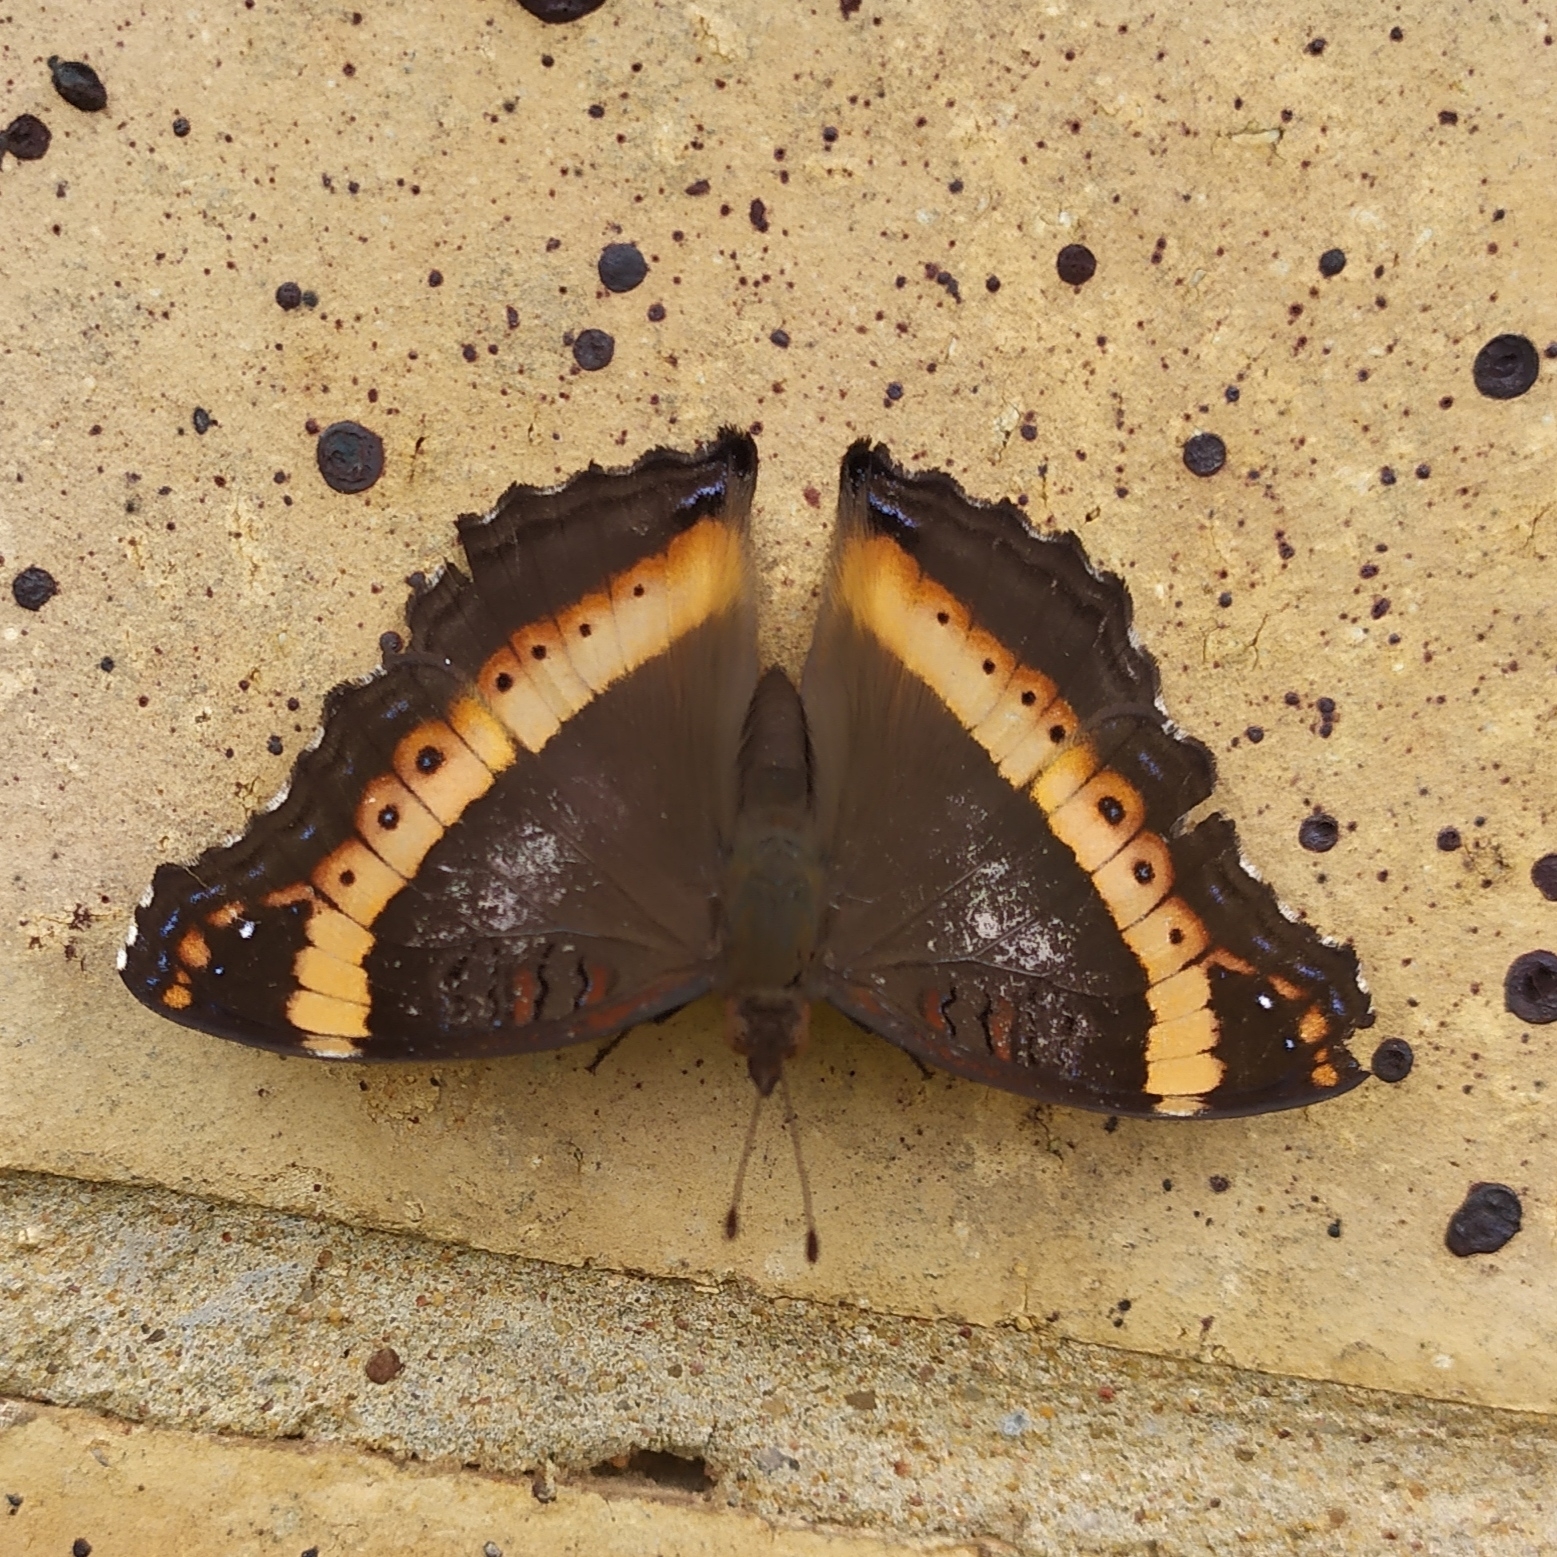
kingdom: Animalia
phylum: Arthropoda
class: Insecta
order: Lepidoptera
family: Nymphalidae
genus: Junonia
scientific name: Junonia archesia
